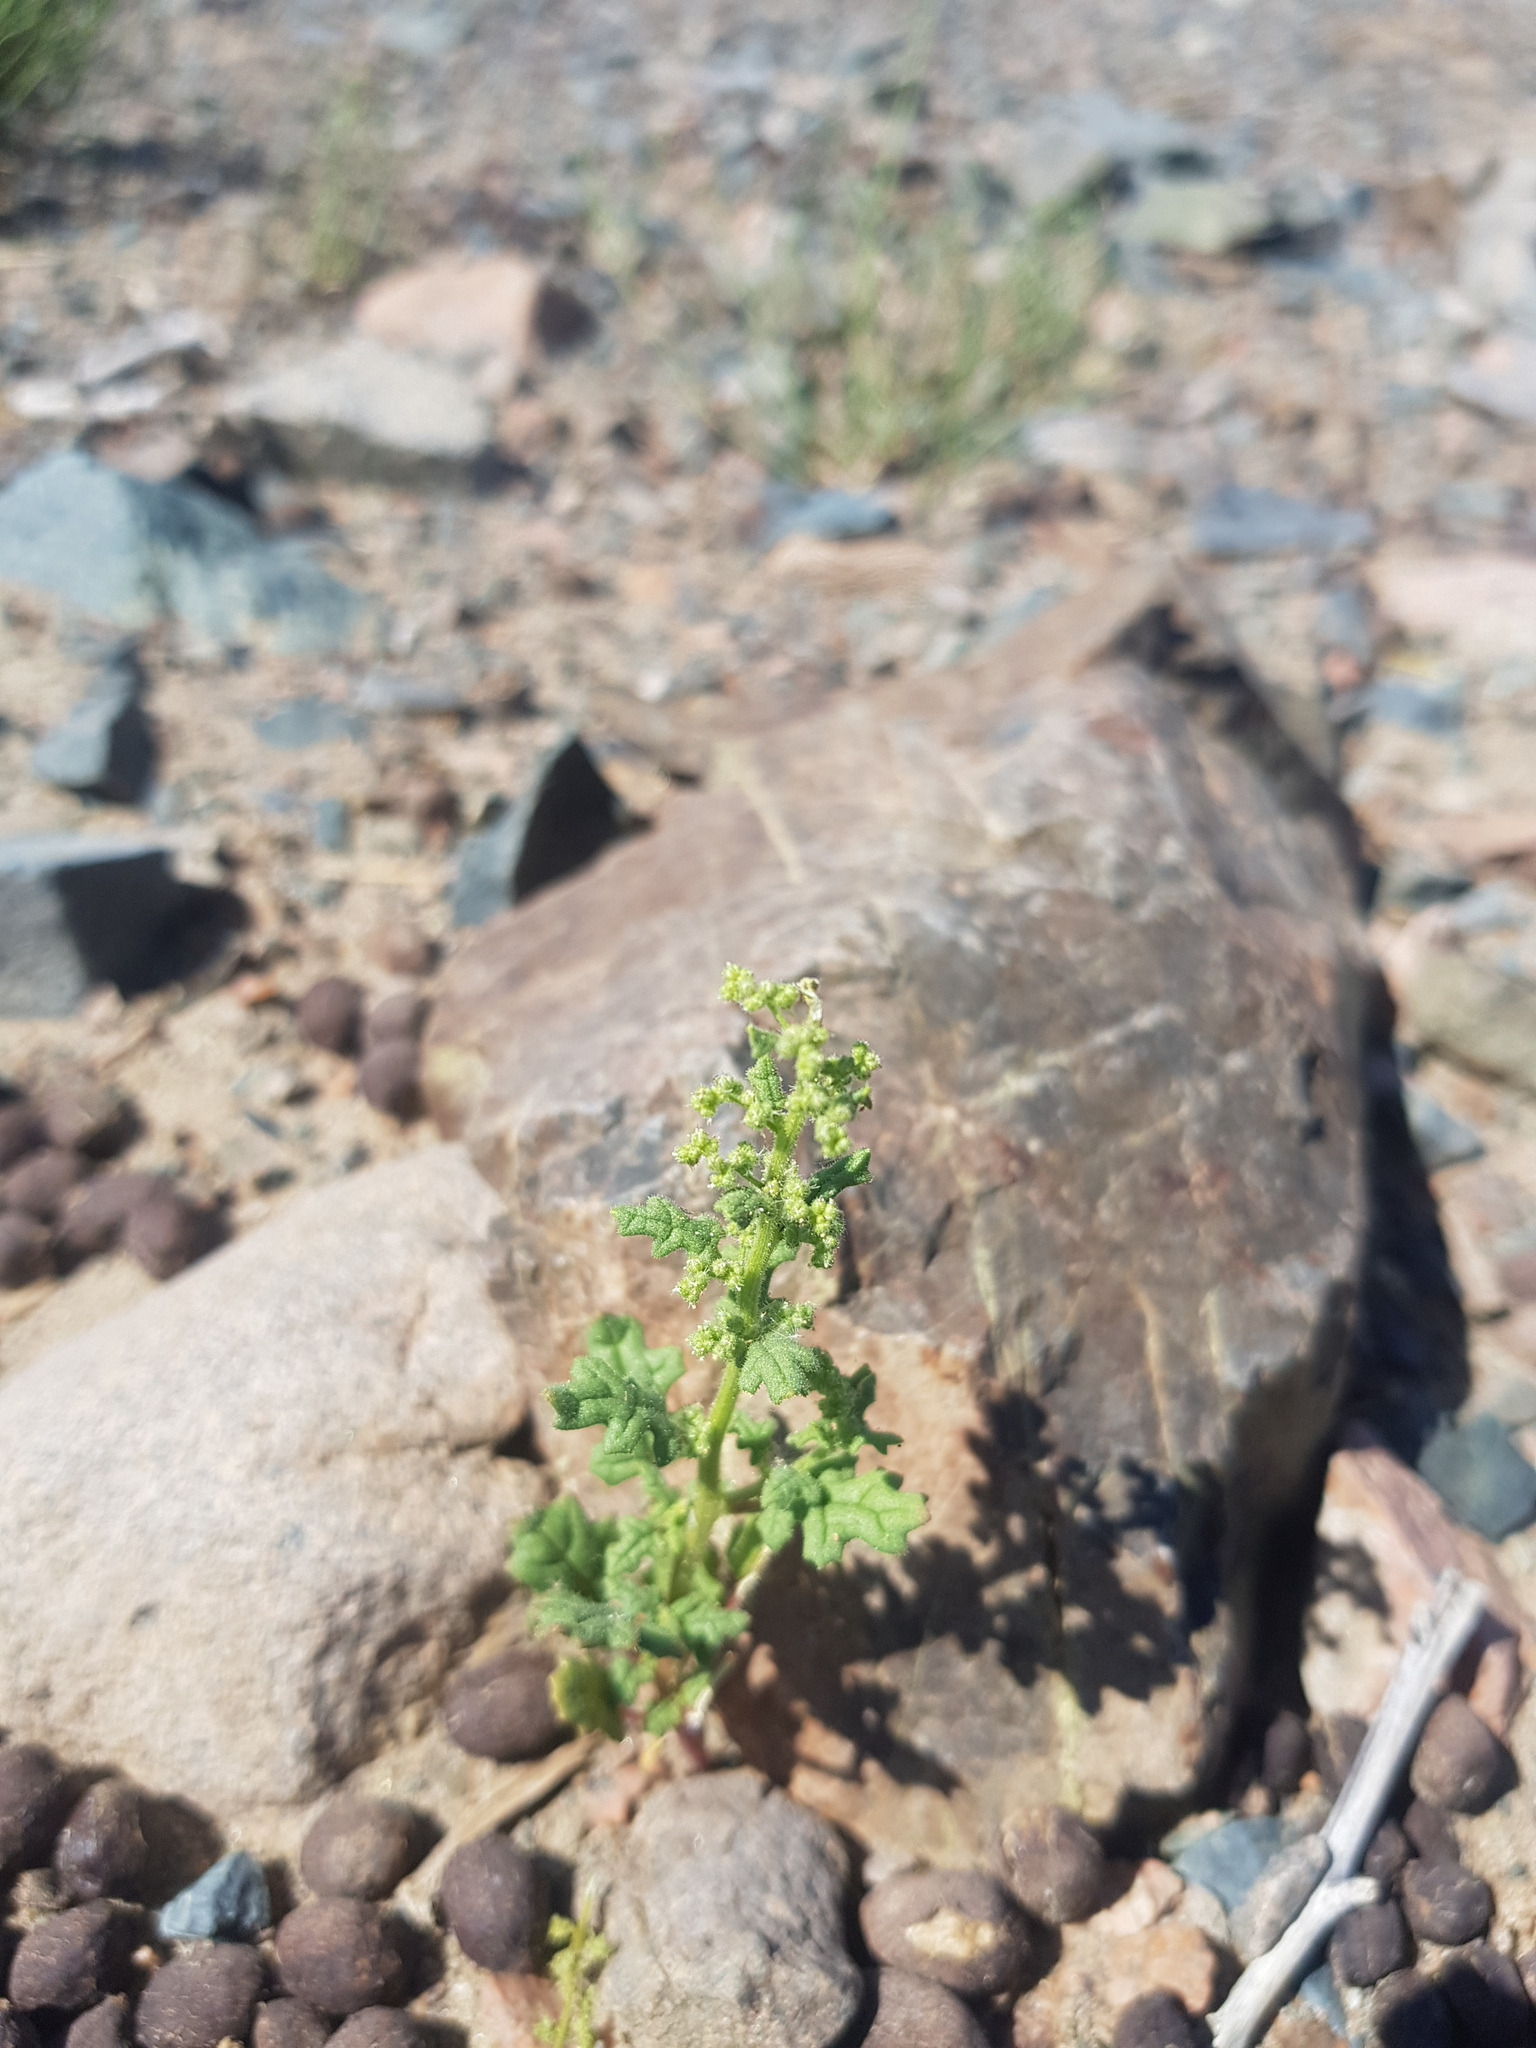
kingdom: Plantae
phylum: Tracheophyta
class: Magnoliopsida
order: Caryophyllales
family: Amaranthaceae
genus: Dysphania
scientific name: Dysphania botrys
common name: Feather-geranium
